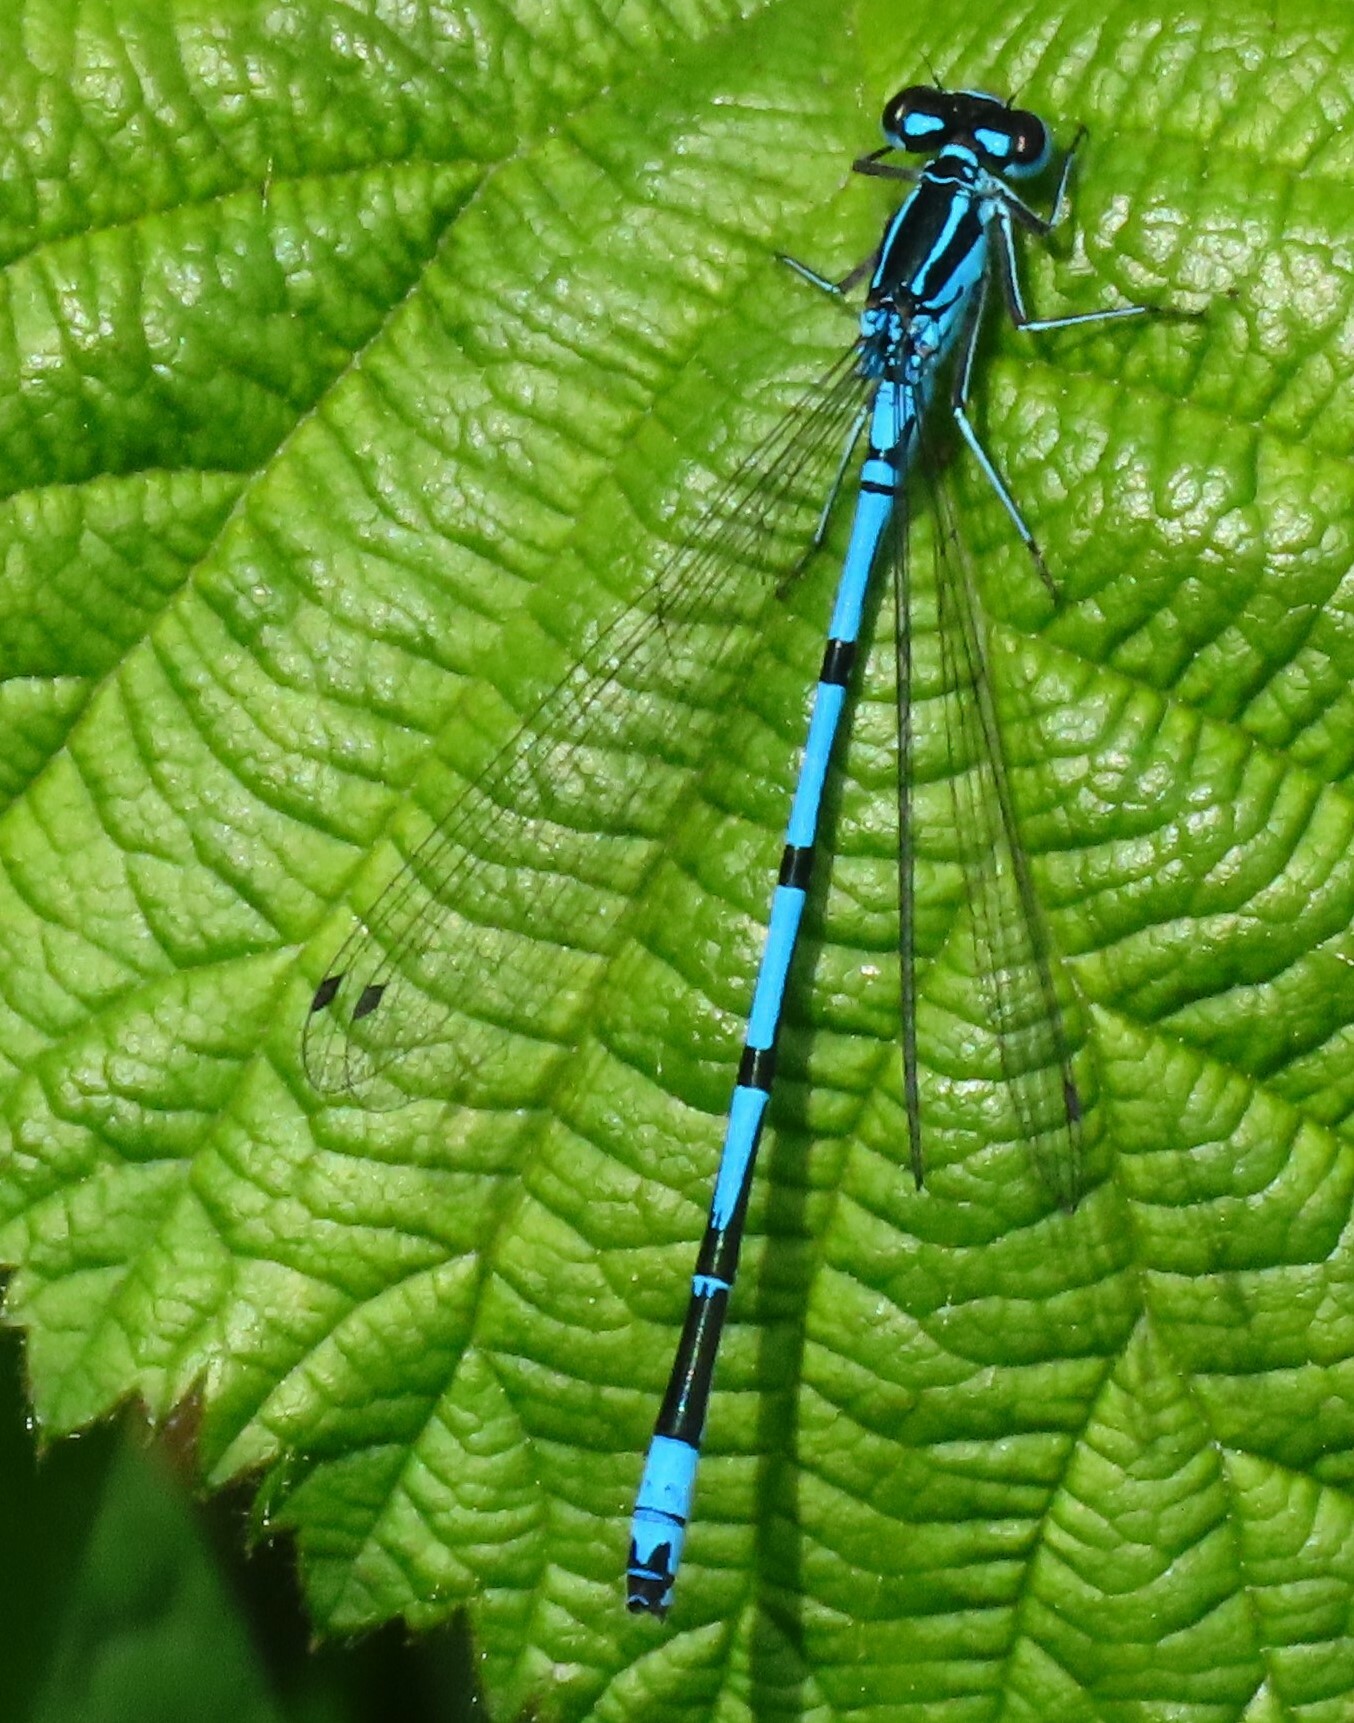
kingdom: Animalia
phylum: Arthropoda
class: Insecta
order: Odonata
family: Coenagrionidae
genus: Coenagrion
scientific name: Coenagrion puella
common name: Azure damselfly
